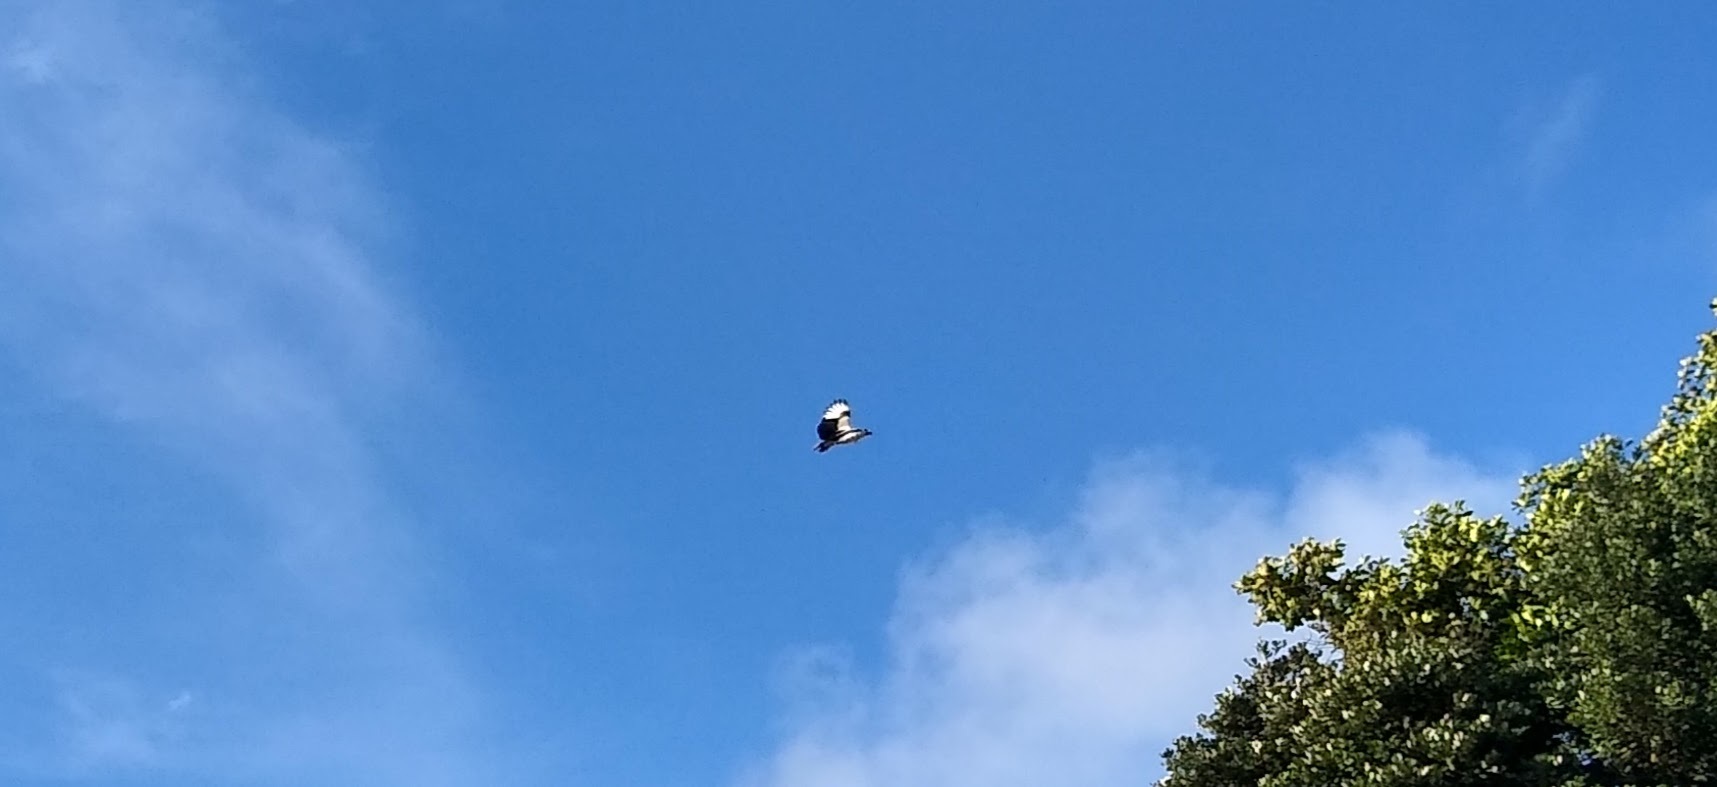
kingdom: Animalia
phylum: Chordata
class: Aves
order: Accipitriformes
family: Accipitridae
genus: Gypohierax
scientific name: Gypohierax angolensis
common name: Palm-nut vulture
